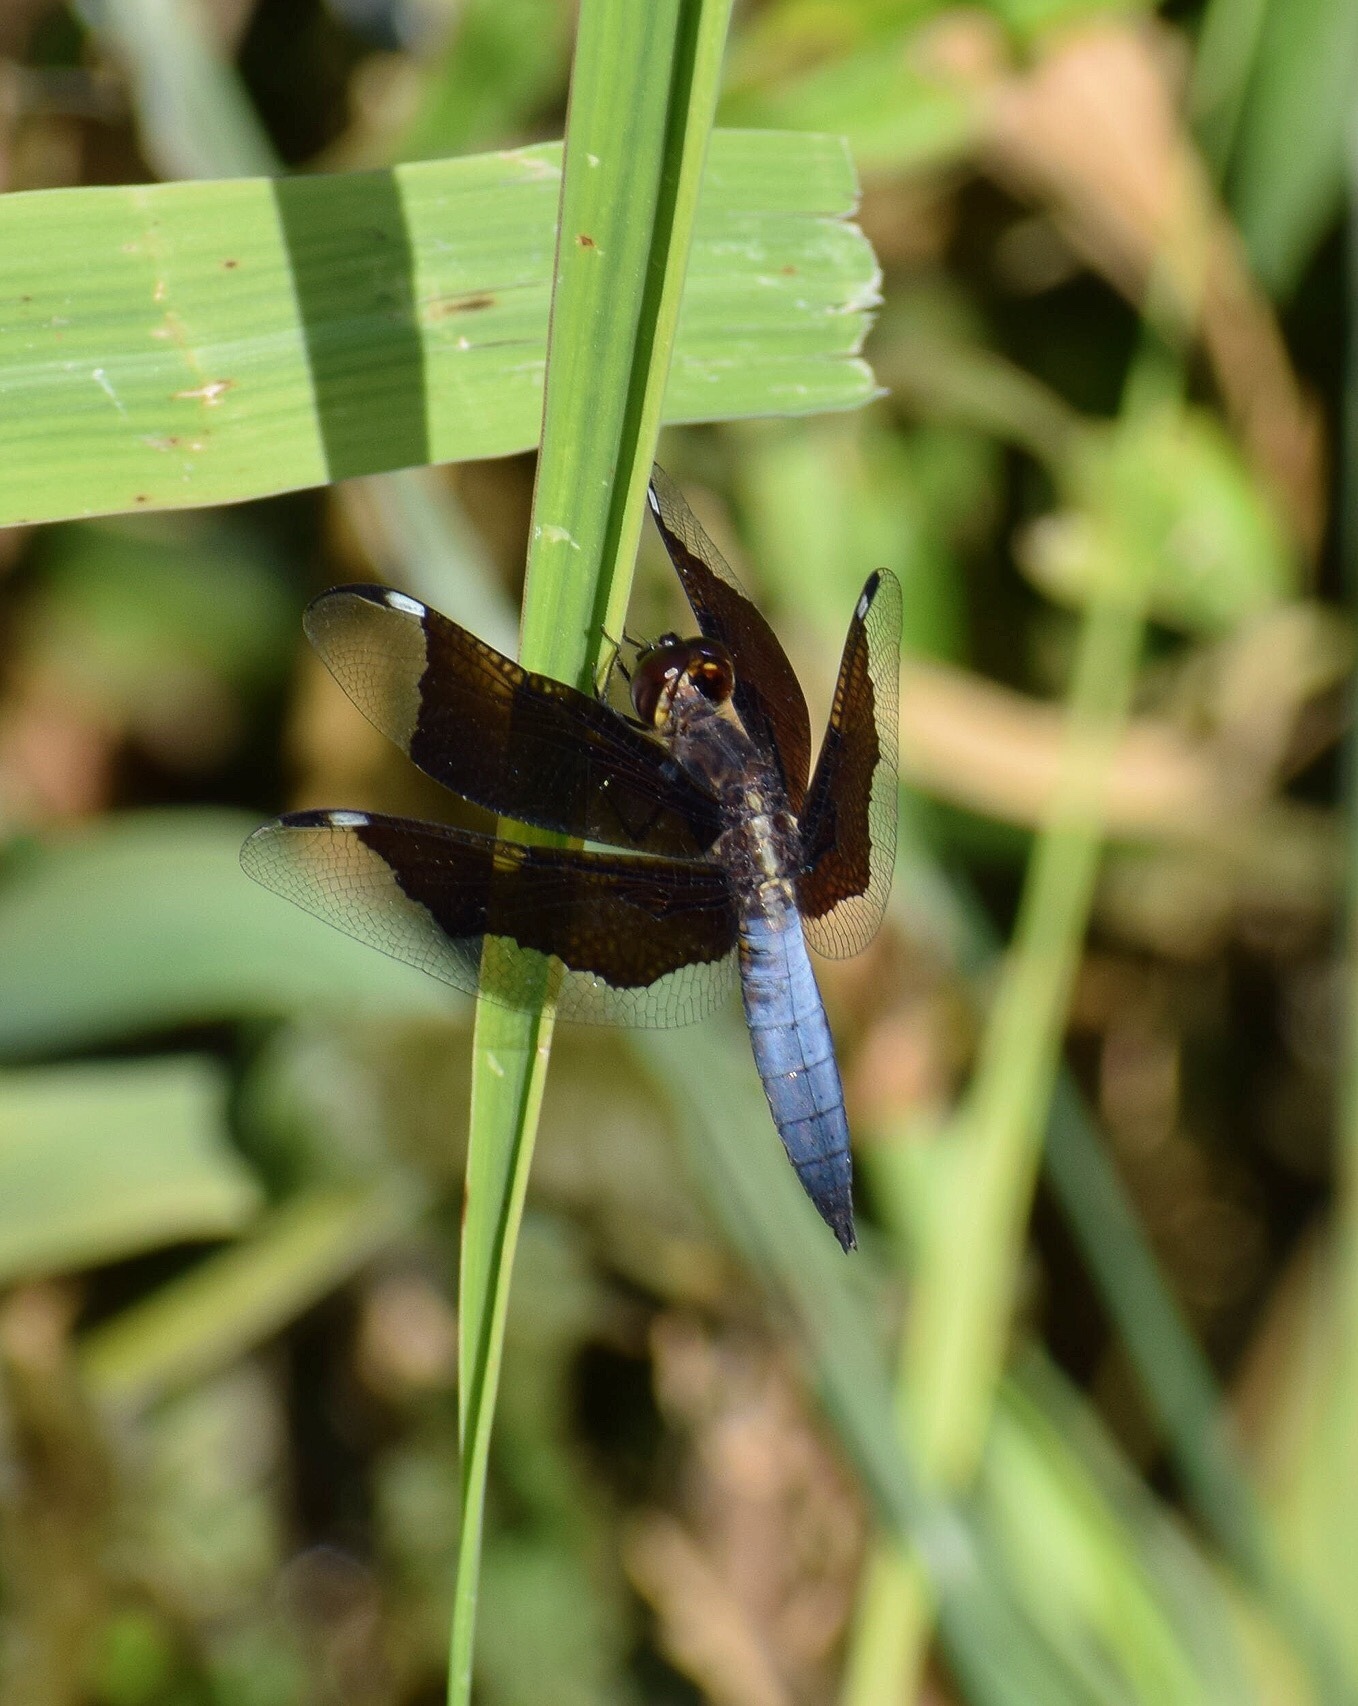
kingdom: Animalia
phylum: Arthropoda
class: Insecta
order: Odonata
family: Libellulidae
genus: Palpopleura
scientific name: Palpopleura lucia
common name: Lucia widow
